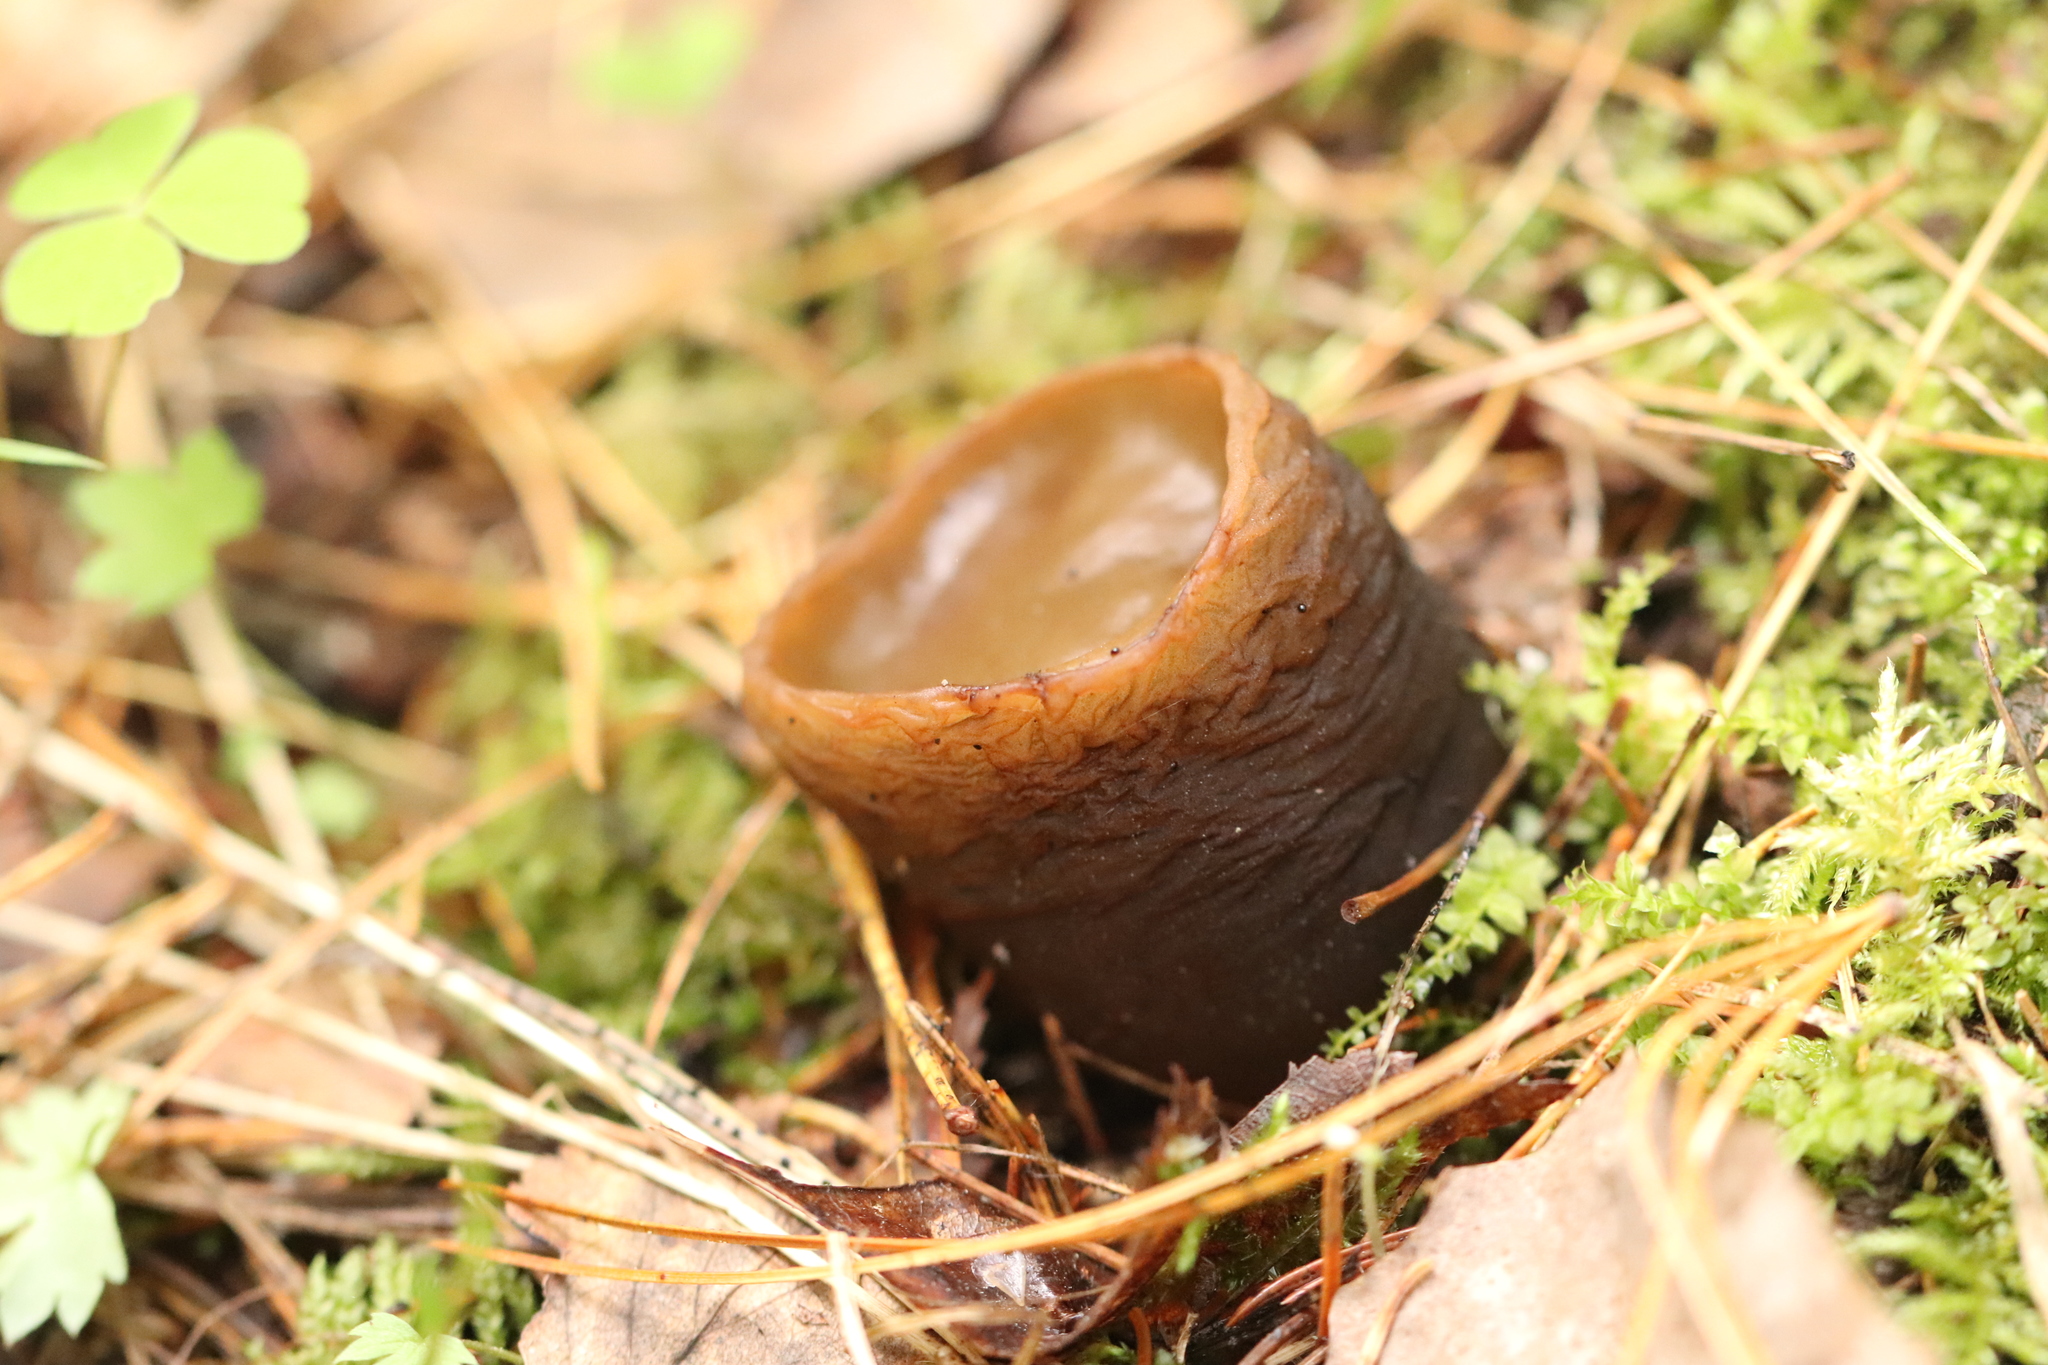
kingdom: Fungi
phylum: Ascomycota
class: Pezizomycetes
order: Pezizales
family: Sarcosomataceae
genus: Sarcosoma
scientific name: Sarcosoma globosum
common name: Charred-pancake cup
